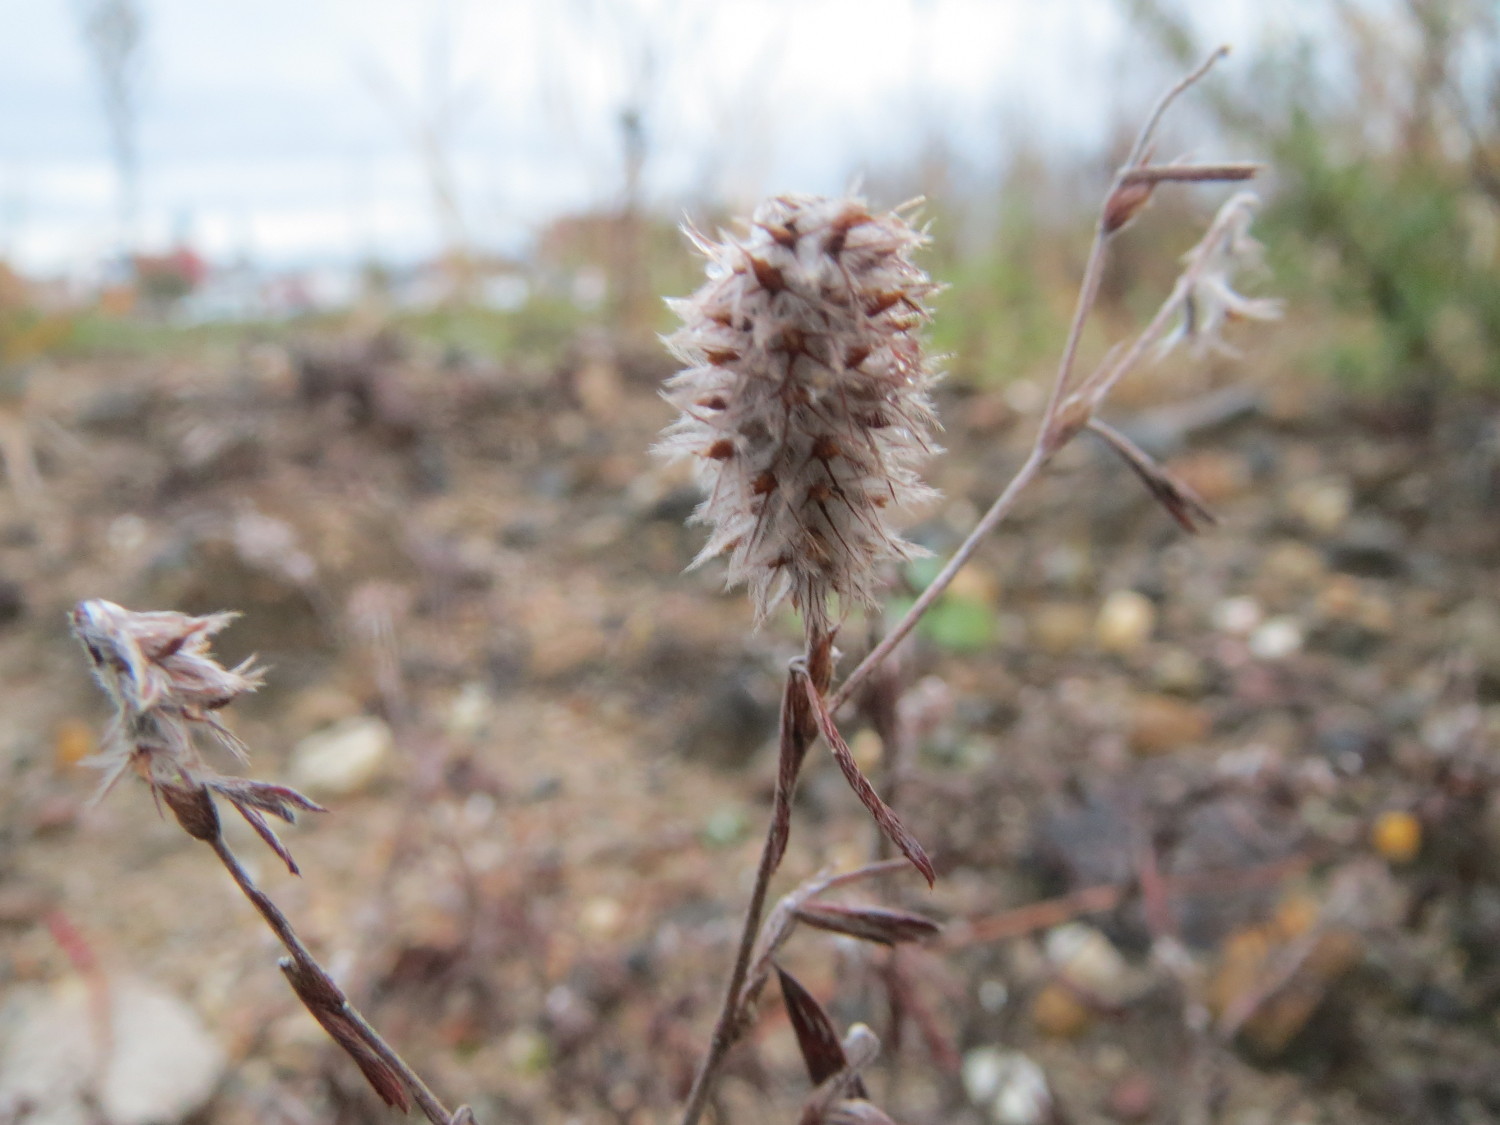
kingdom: Plantae
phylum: Tracheophyta
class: Magnoliopsida
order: Fabales
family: Fabaceae
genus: Trifolium
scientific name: Trifolium arvense
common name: Hare's-foot clover
